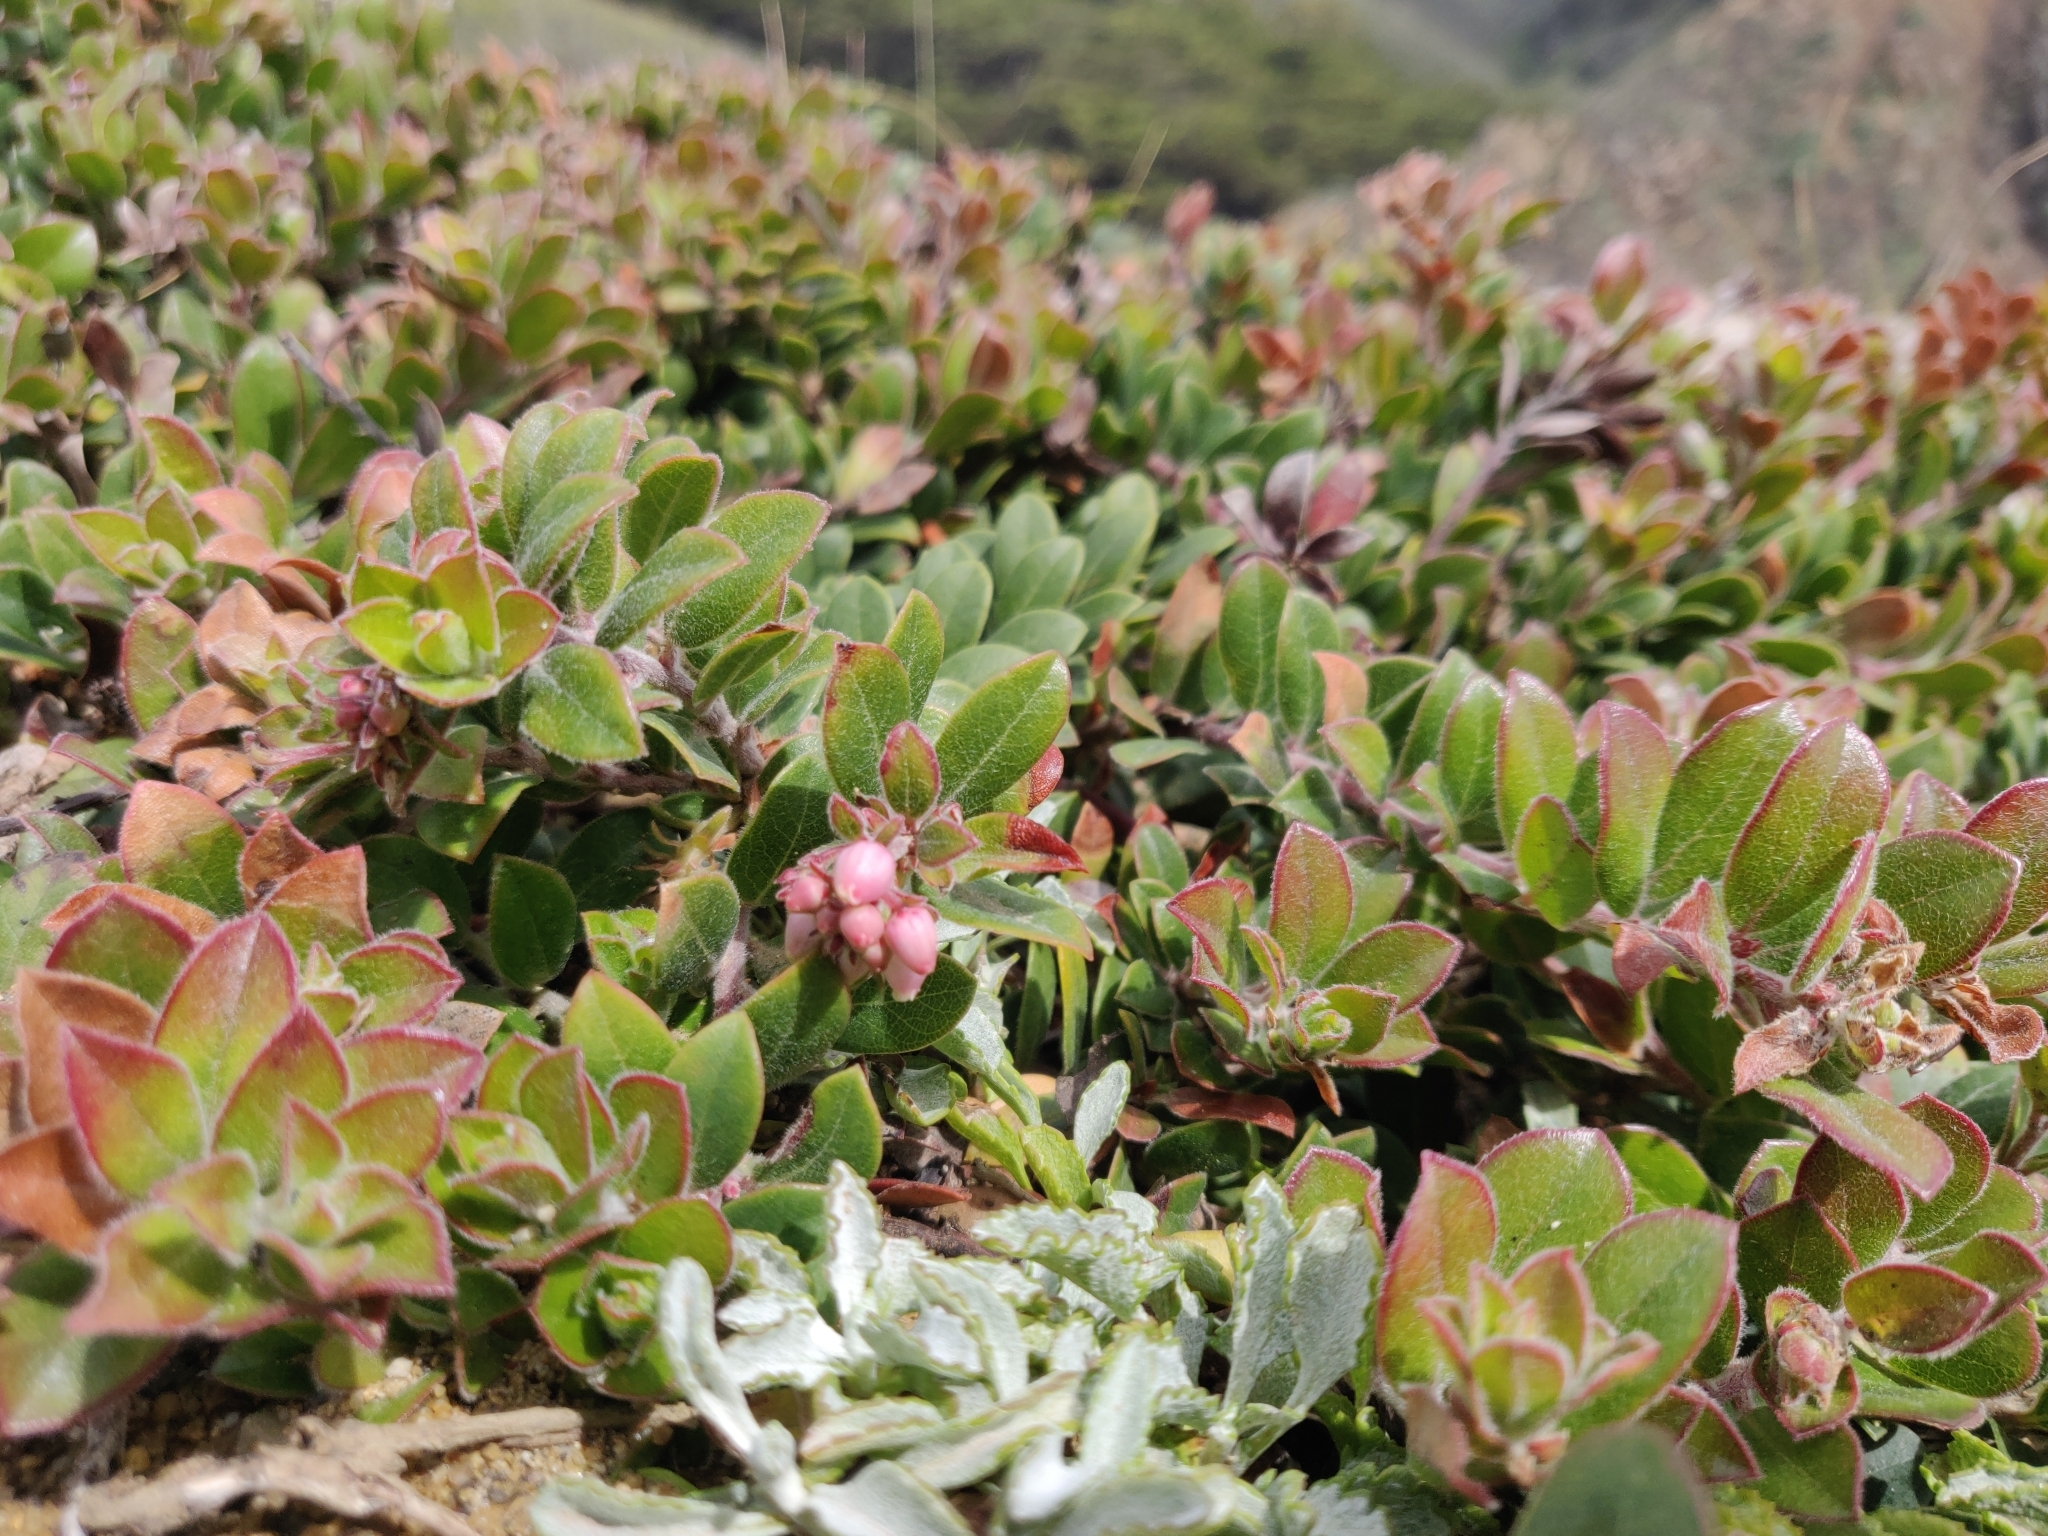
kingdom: Plantae
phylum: Tracheophyta
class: Magnoliopsida
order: Ericales
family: Ericaceae
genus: Arctostaphylos
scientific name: Arctostaphylos uva-ursi
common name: Bearberry
